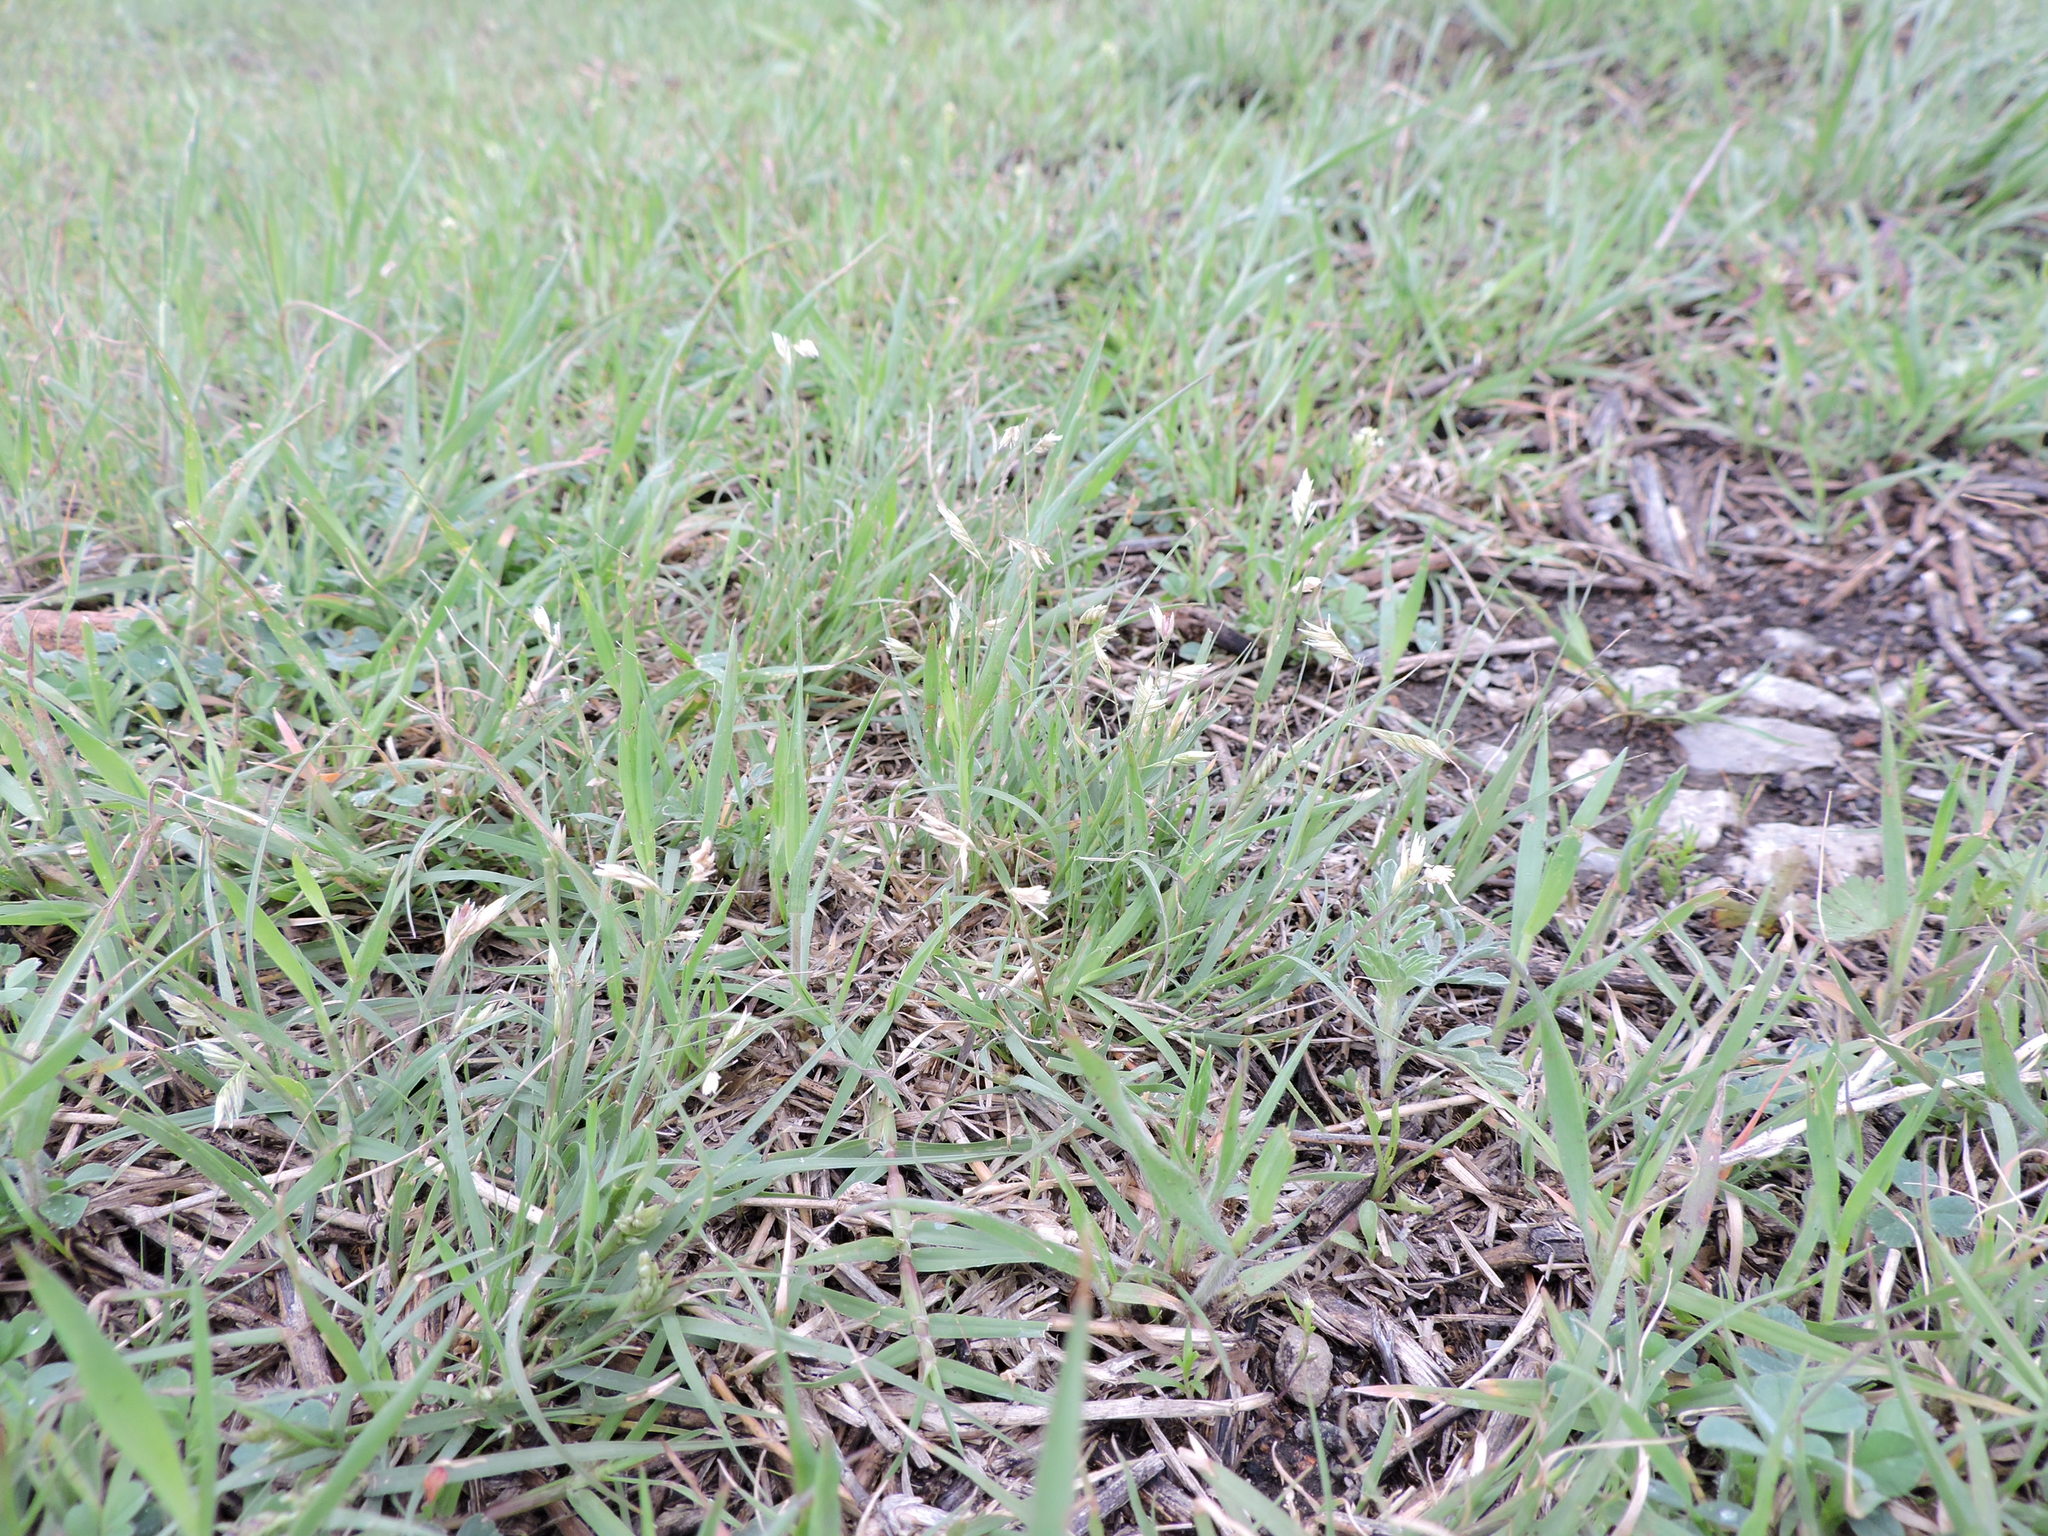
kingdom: Plantae
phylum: Tracheophyta
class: Liliopsida
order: Poales
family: Poaceae
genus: Bouteloua
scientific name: Bouteloua dactyloides
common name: Buffalo grass
